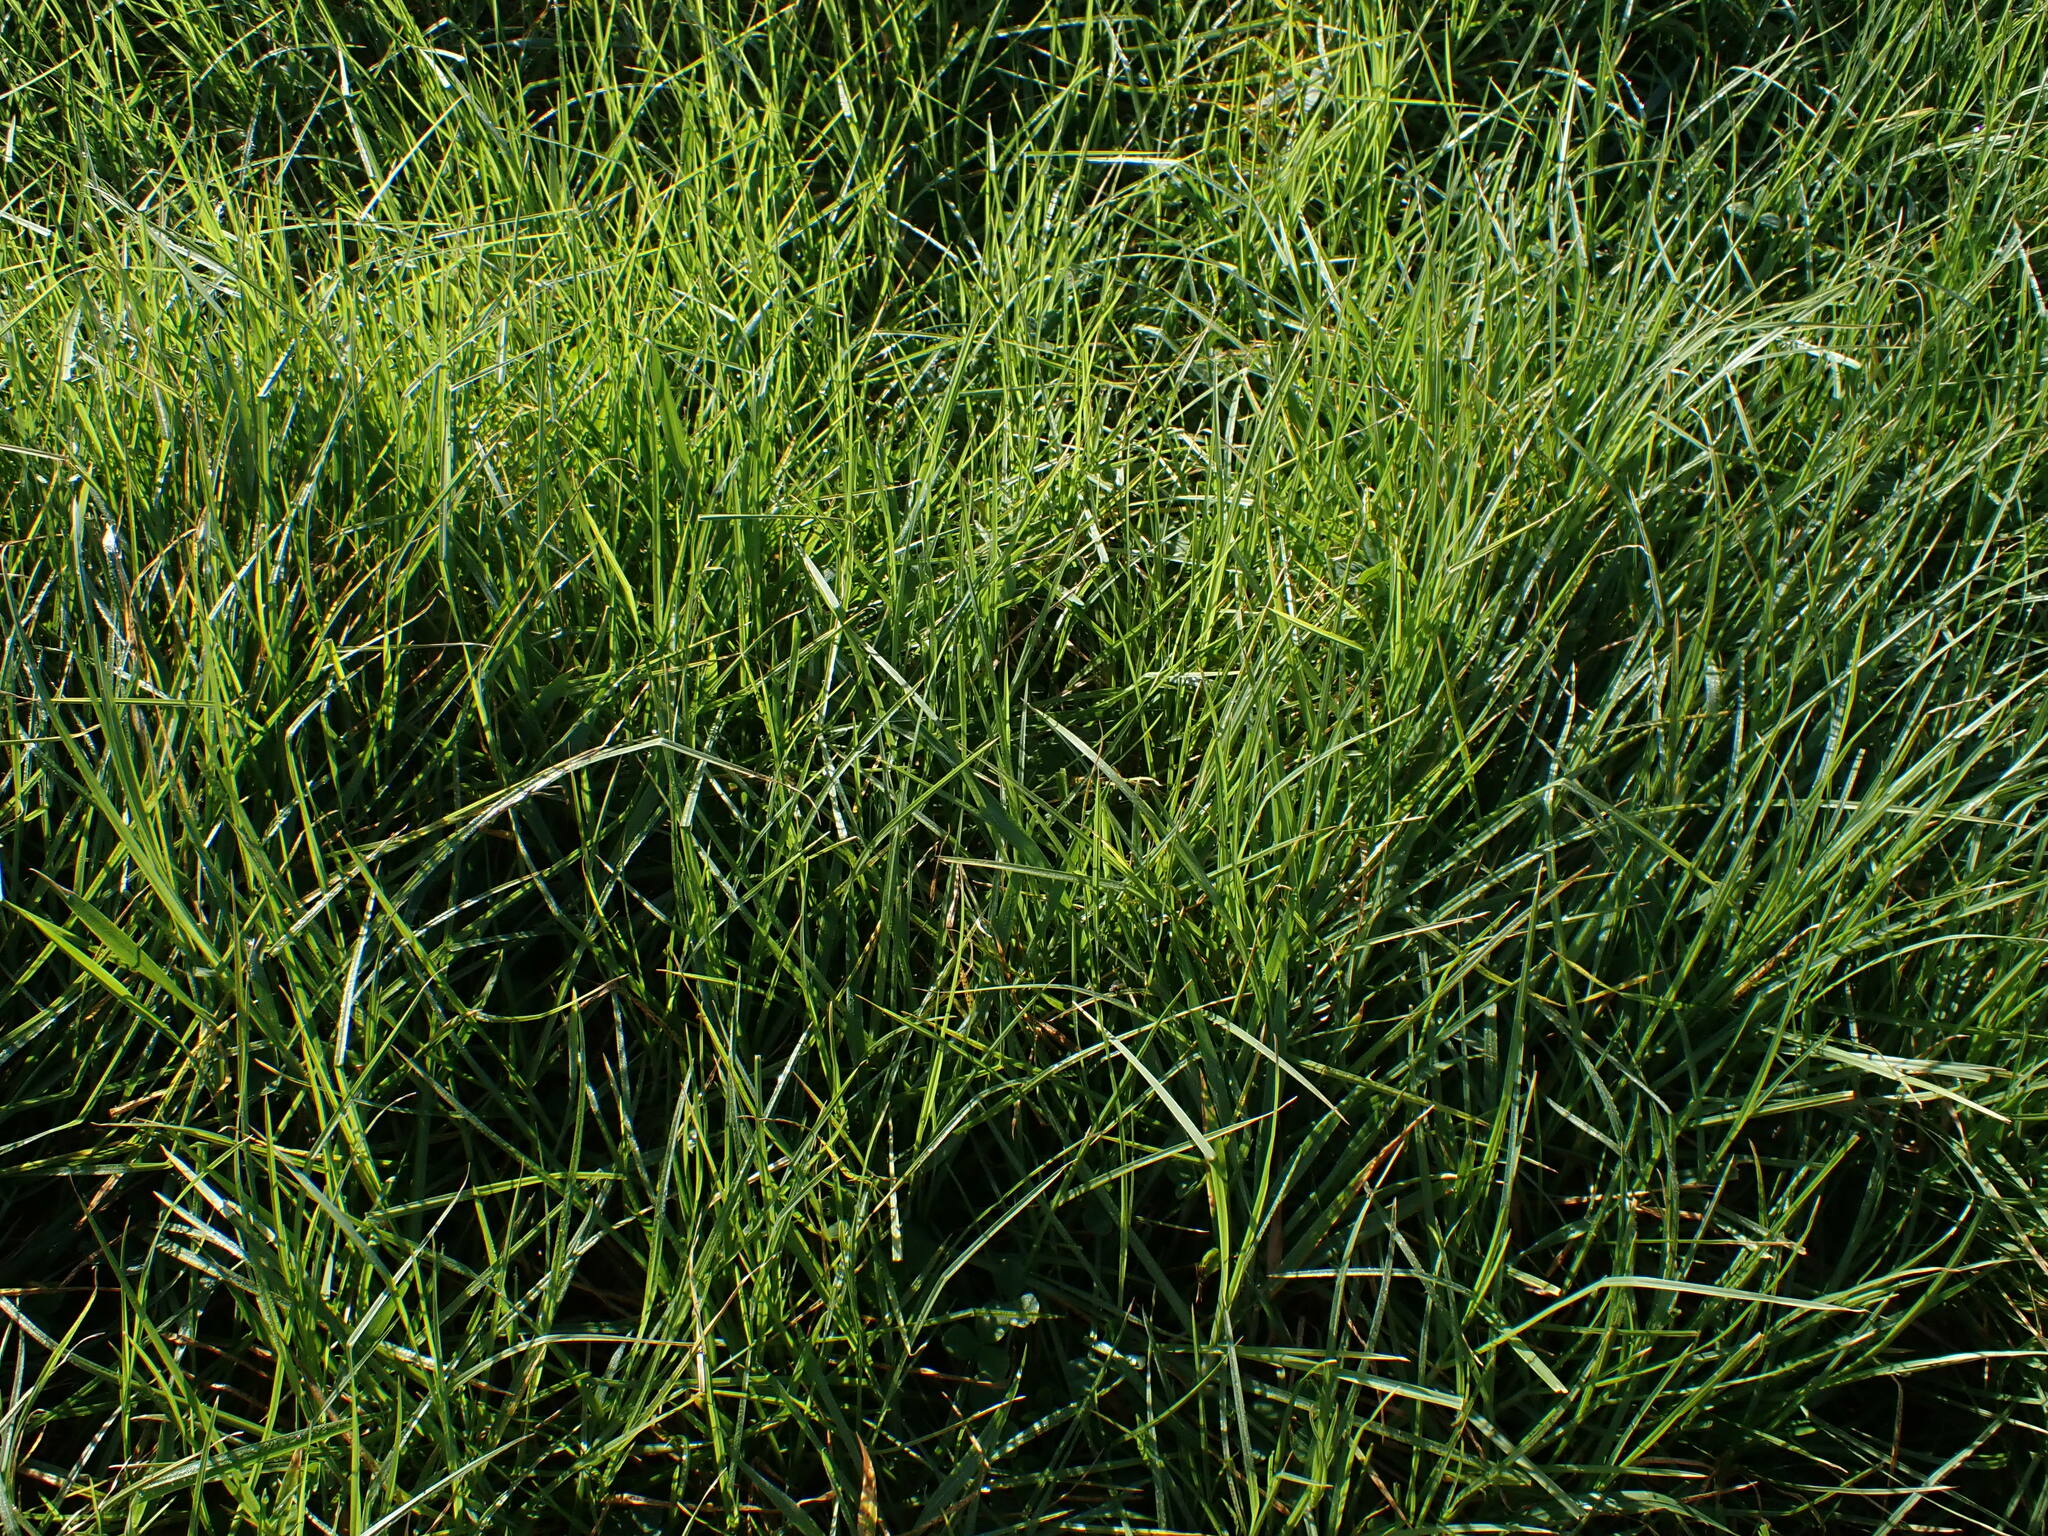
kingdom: Plantae
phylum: Tracheophyta
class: Liliopsida
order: Poales
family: Poaceae
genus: Cenchrus
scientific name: Cenchrus clandestinus
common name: Kikuyugrass
